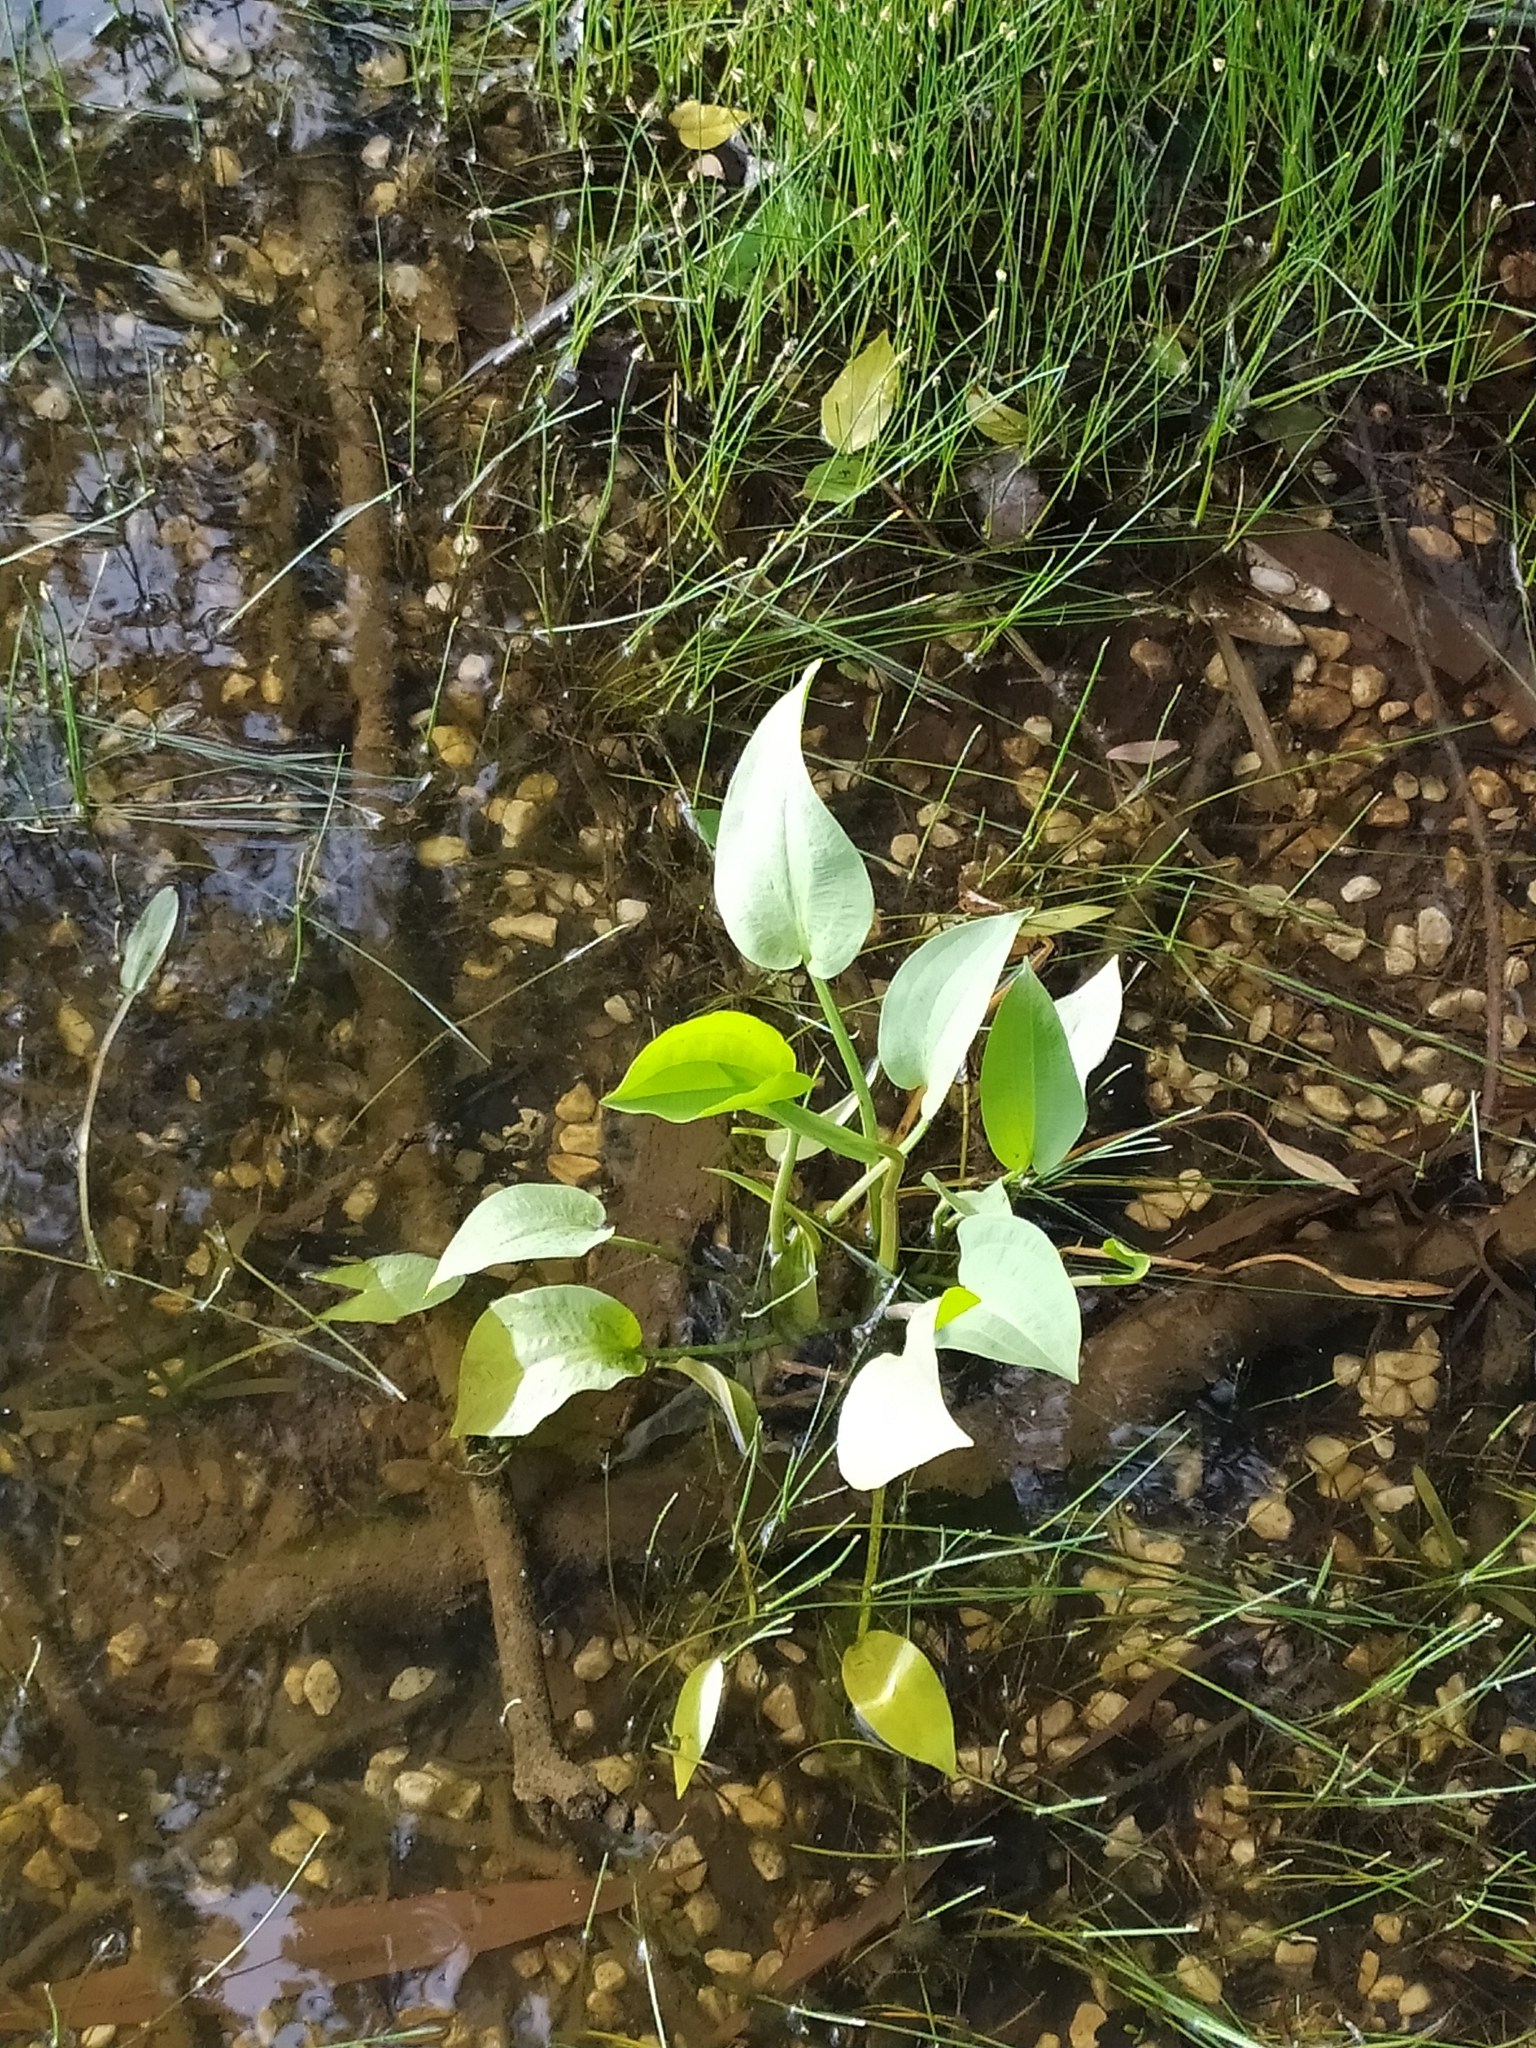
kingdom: Plantae
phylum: Tracheophyta
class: Liliopsida
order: Alismatales
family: Alismataceae
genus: Alisma
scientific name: Alisma plantago-aquatica
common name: Water-plantain
